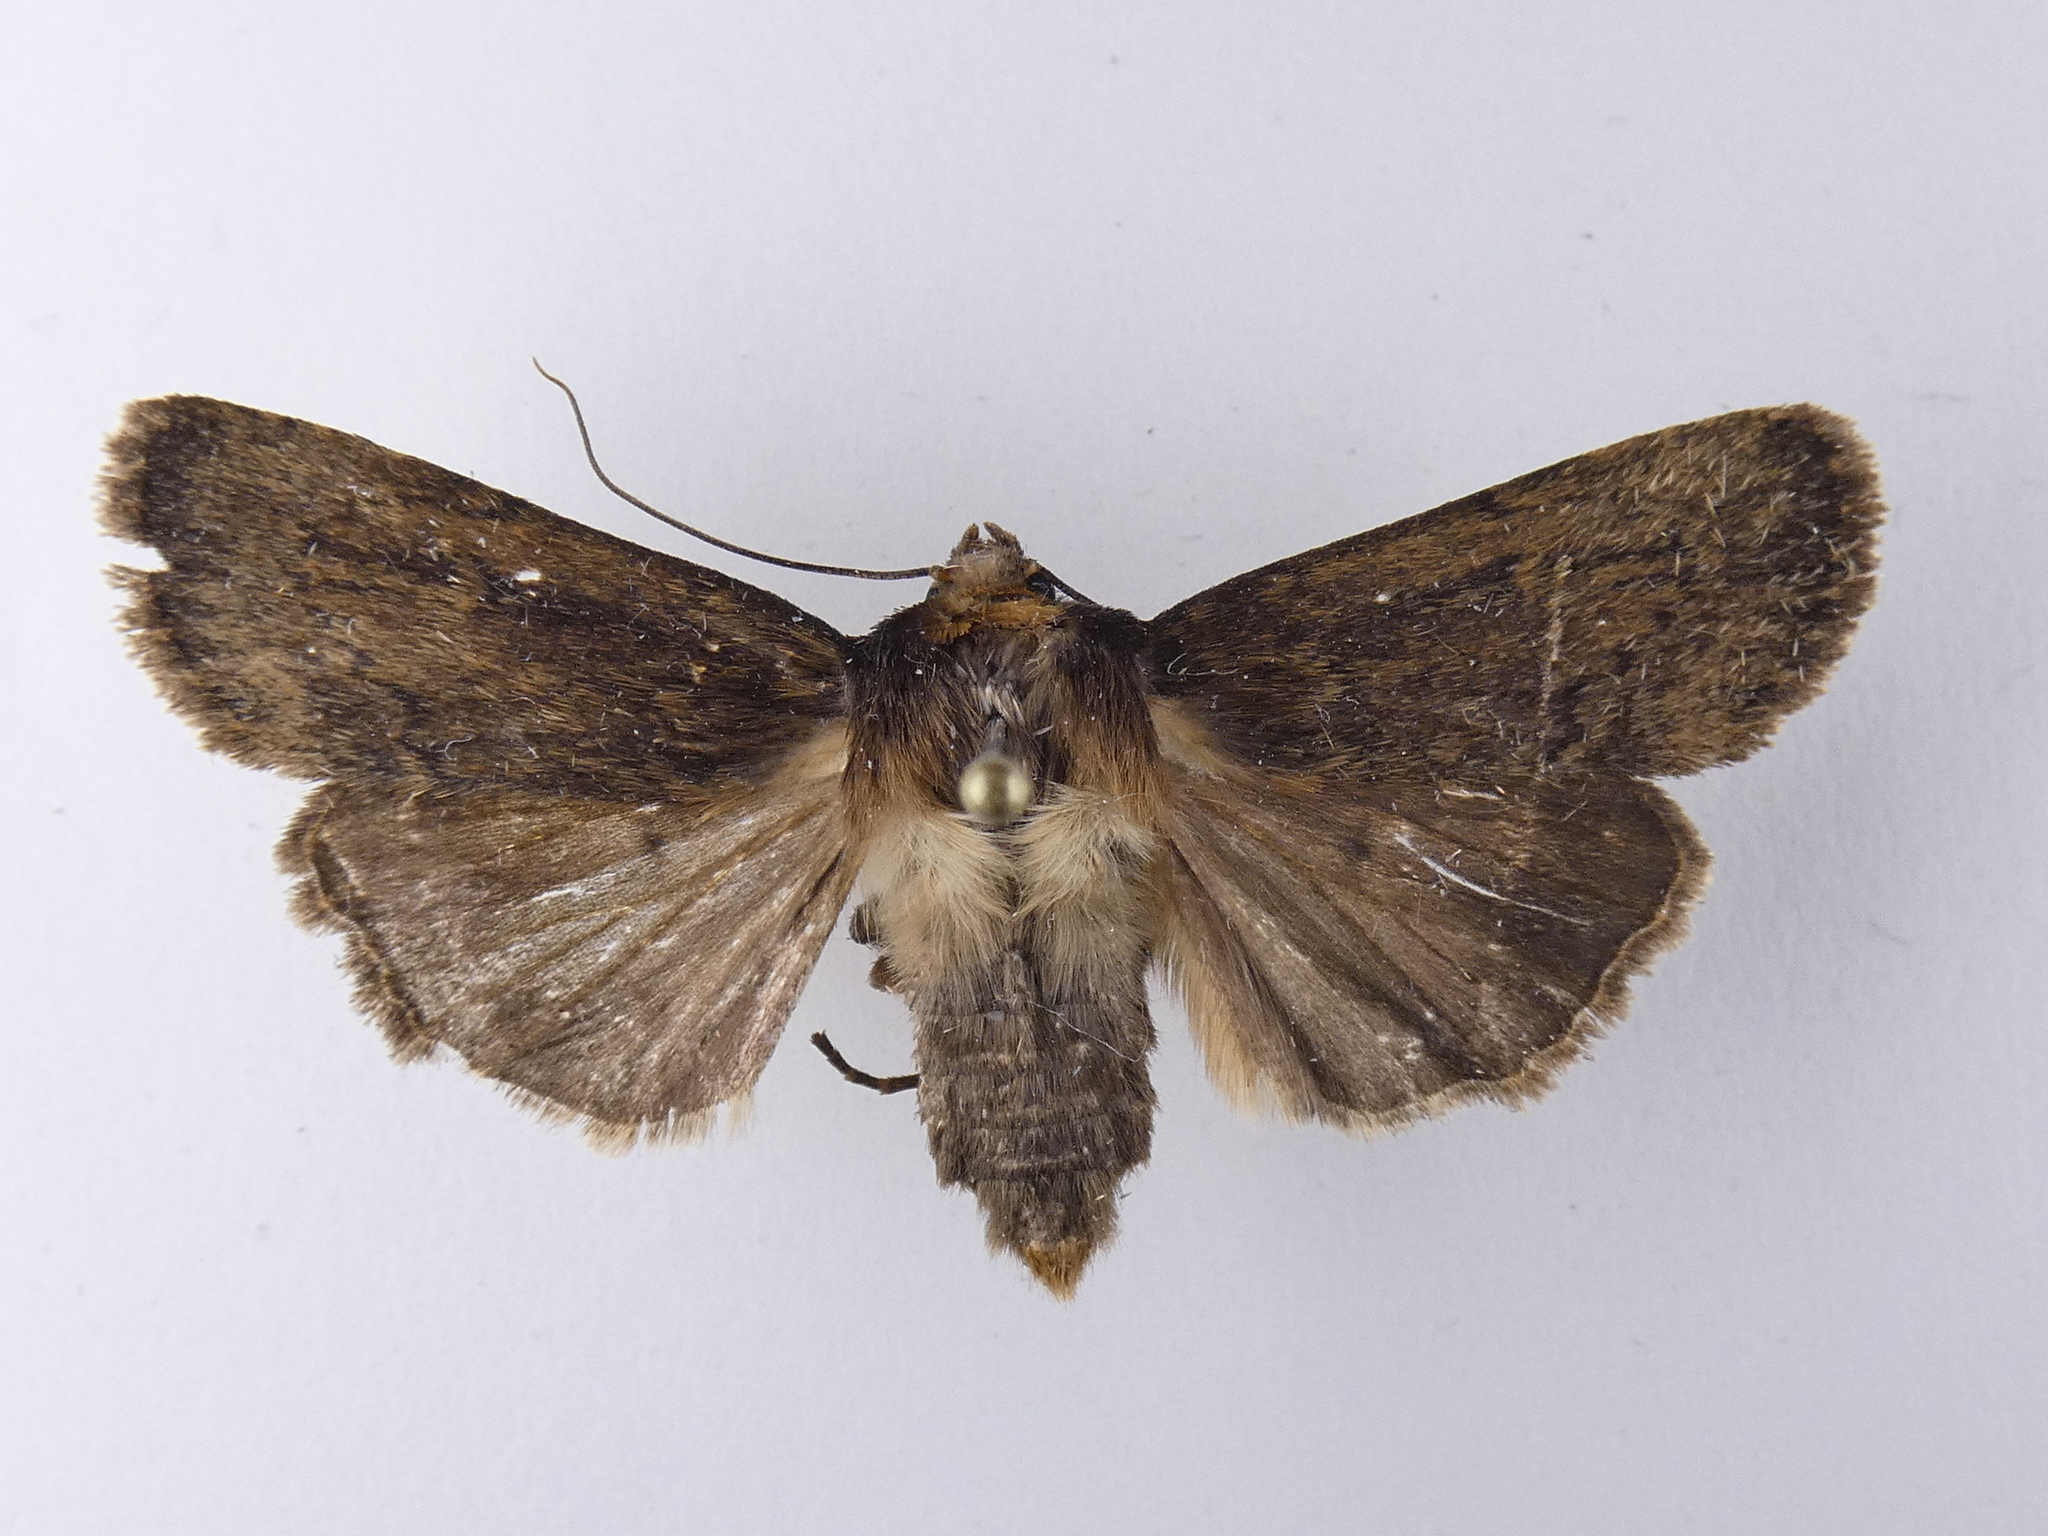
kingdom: Animalia
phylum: Arthropoda
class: Insecta
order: Lepidoptera
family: Noctuidae
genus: Bityla
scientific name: Bityla defigurata
